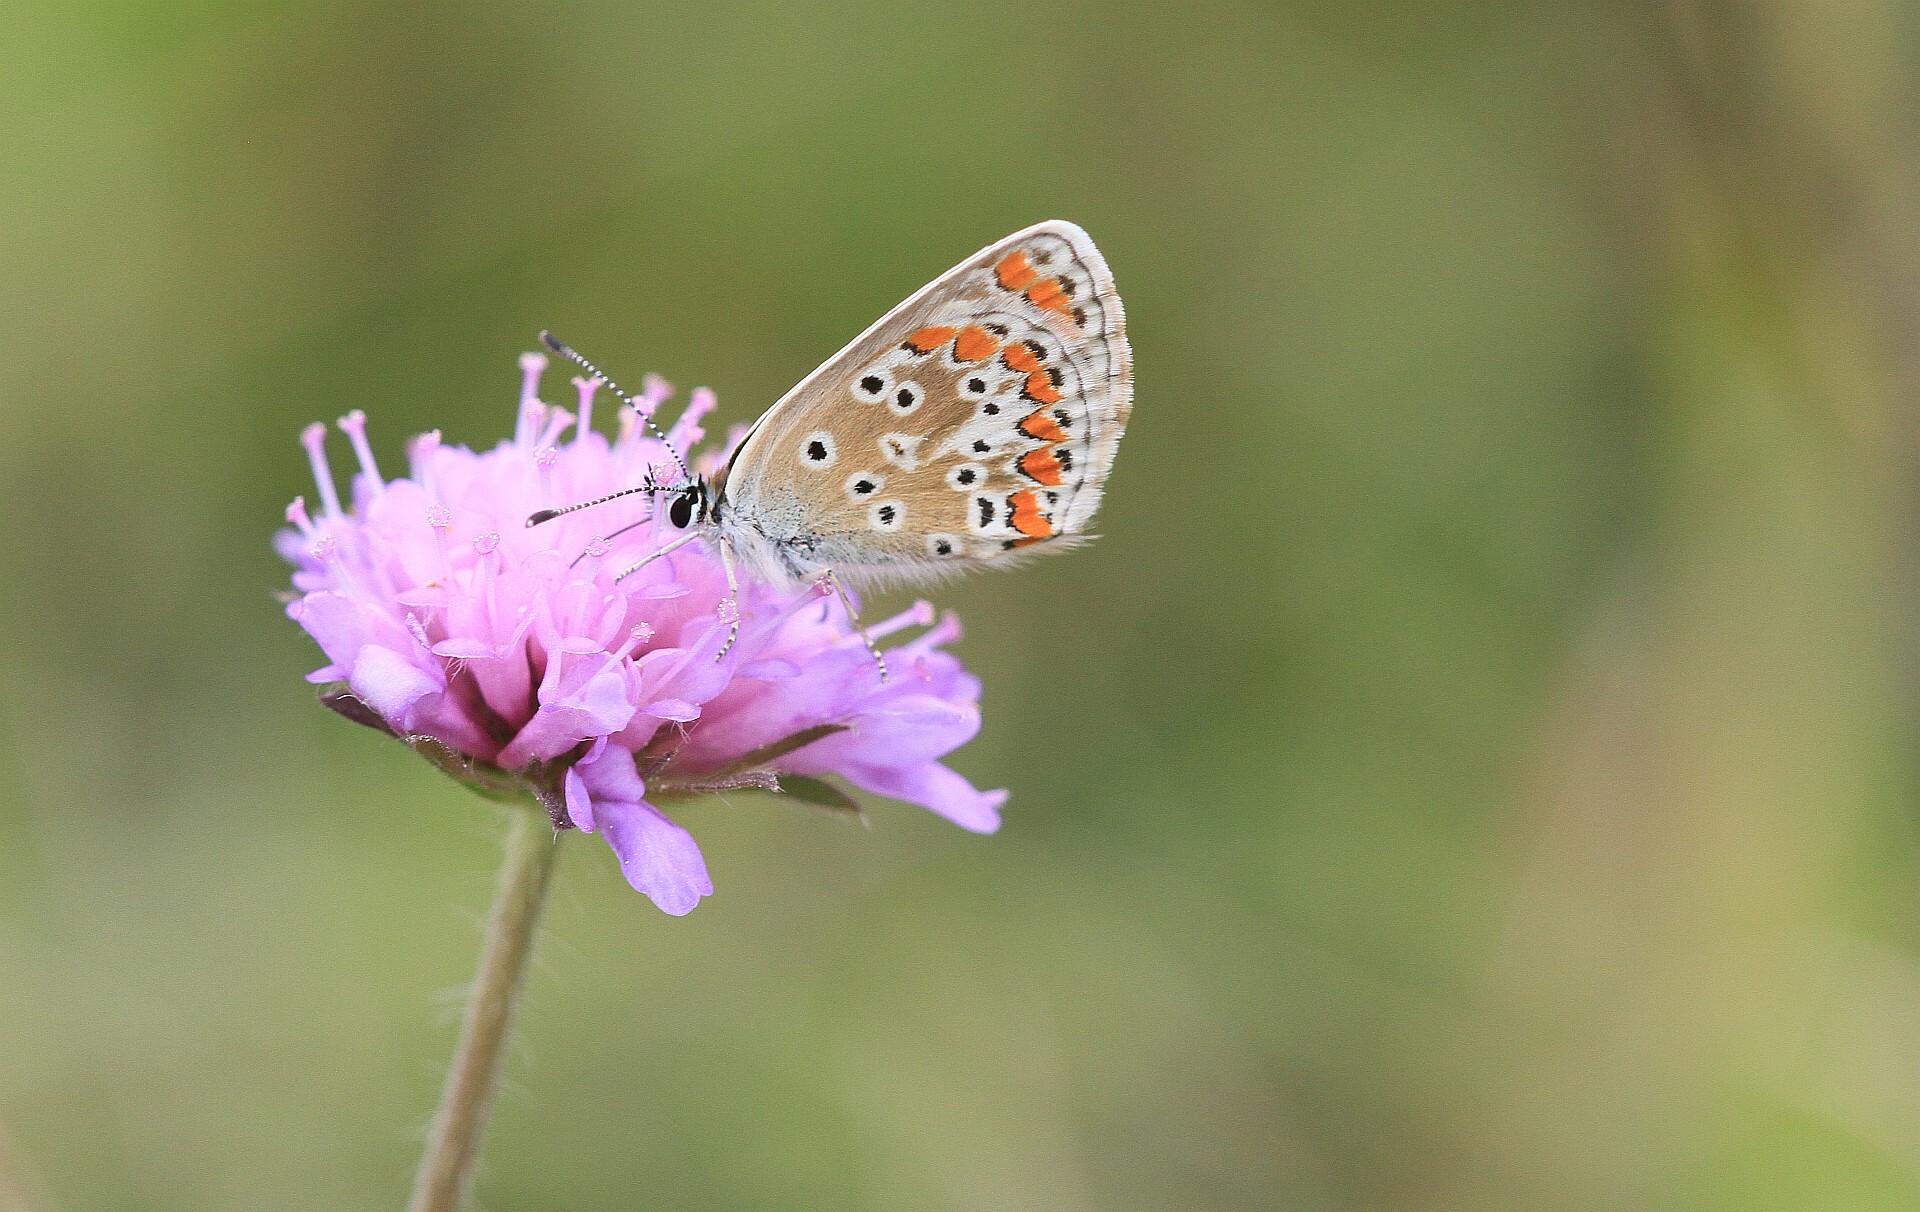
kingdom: Animalia
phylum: Arthropoda
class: Insecta
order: Lepidoptera
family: Lycaenidae
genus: Aricia
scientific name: Aricia agestis
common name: Brown argus
